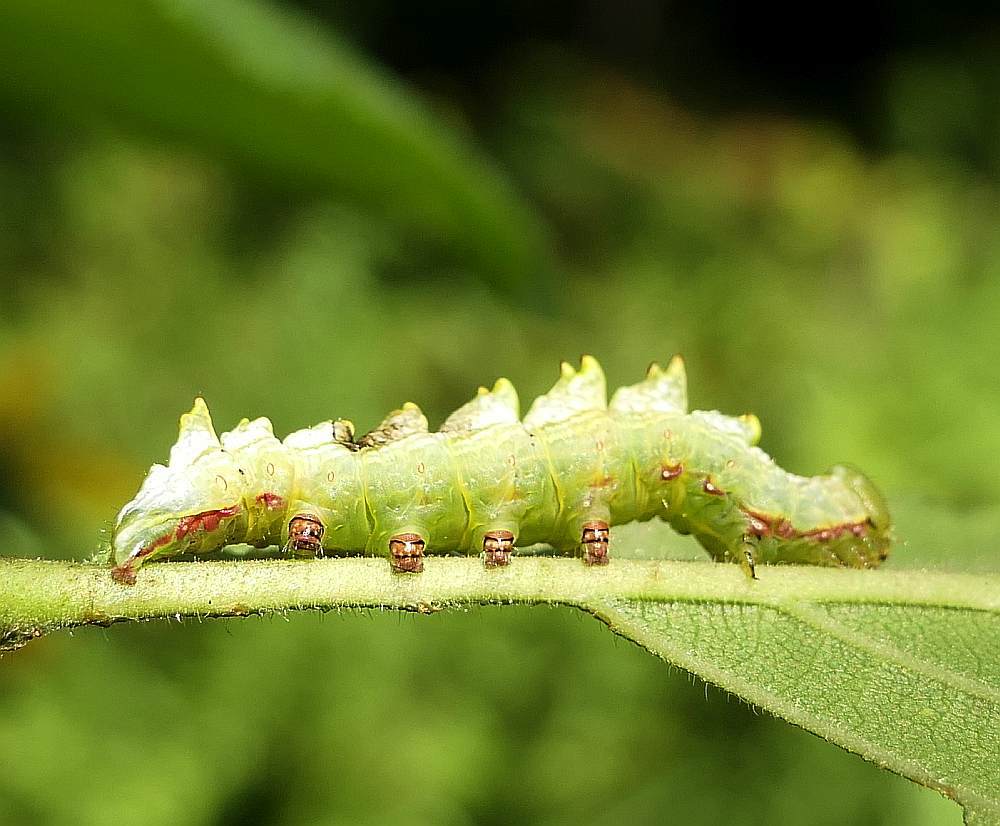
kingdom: Animalia
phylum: Arthropoda
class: Insecta
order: Lepidoptera
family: Notodontidae
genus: Nerice
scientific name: Nerice bidentata
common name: Double-toothed prominent
